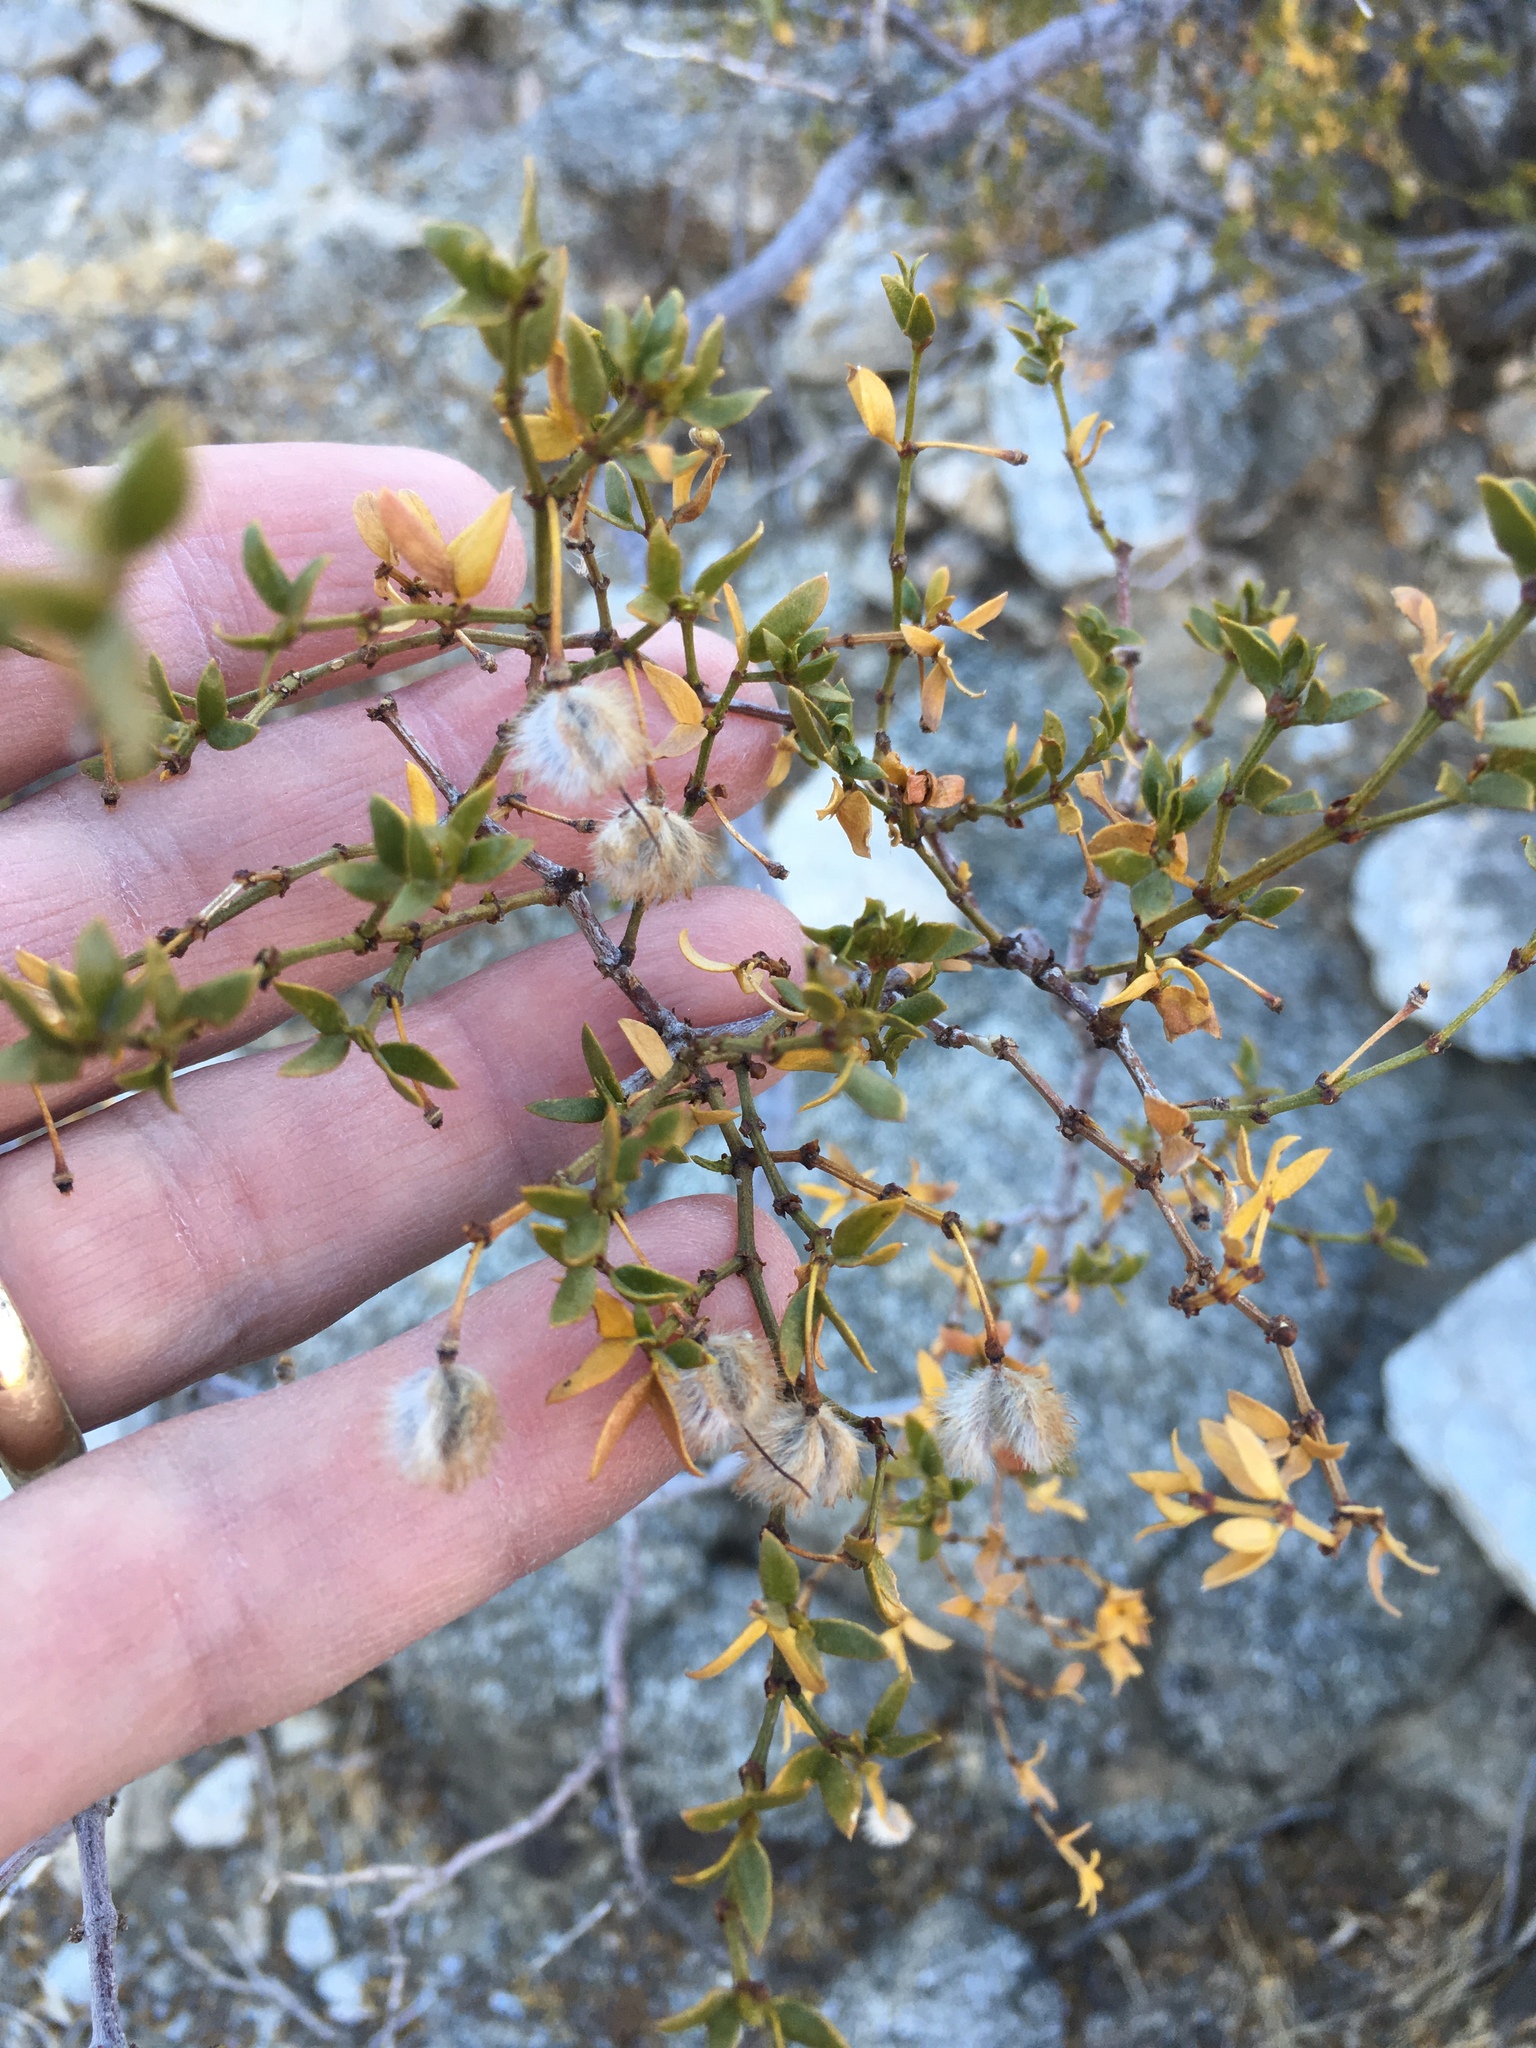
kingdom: Plantae
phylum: Tracheophyta
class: Magnoliopsida
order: Zygophyllales
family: Zygophyllaceae
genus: Larrea
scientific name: Larrea tridentata
